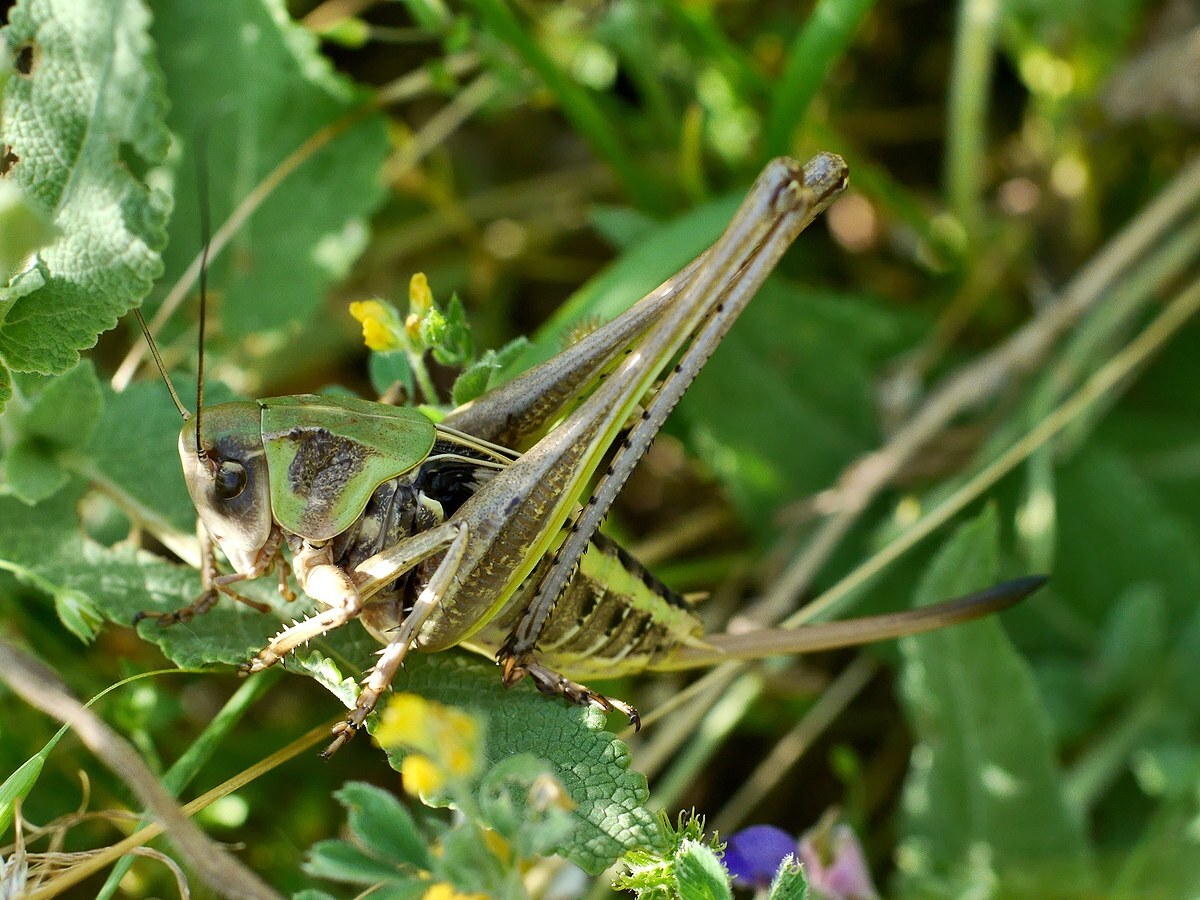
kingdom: Animalia
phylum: Arthropoda
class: Insecta
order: Orthoptera
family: Tettigoniidae
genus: Decticus
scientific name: Decticus verrucivorus
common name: Wart-biter
